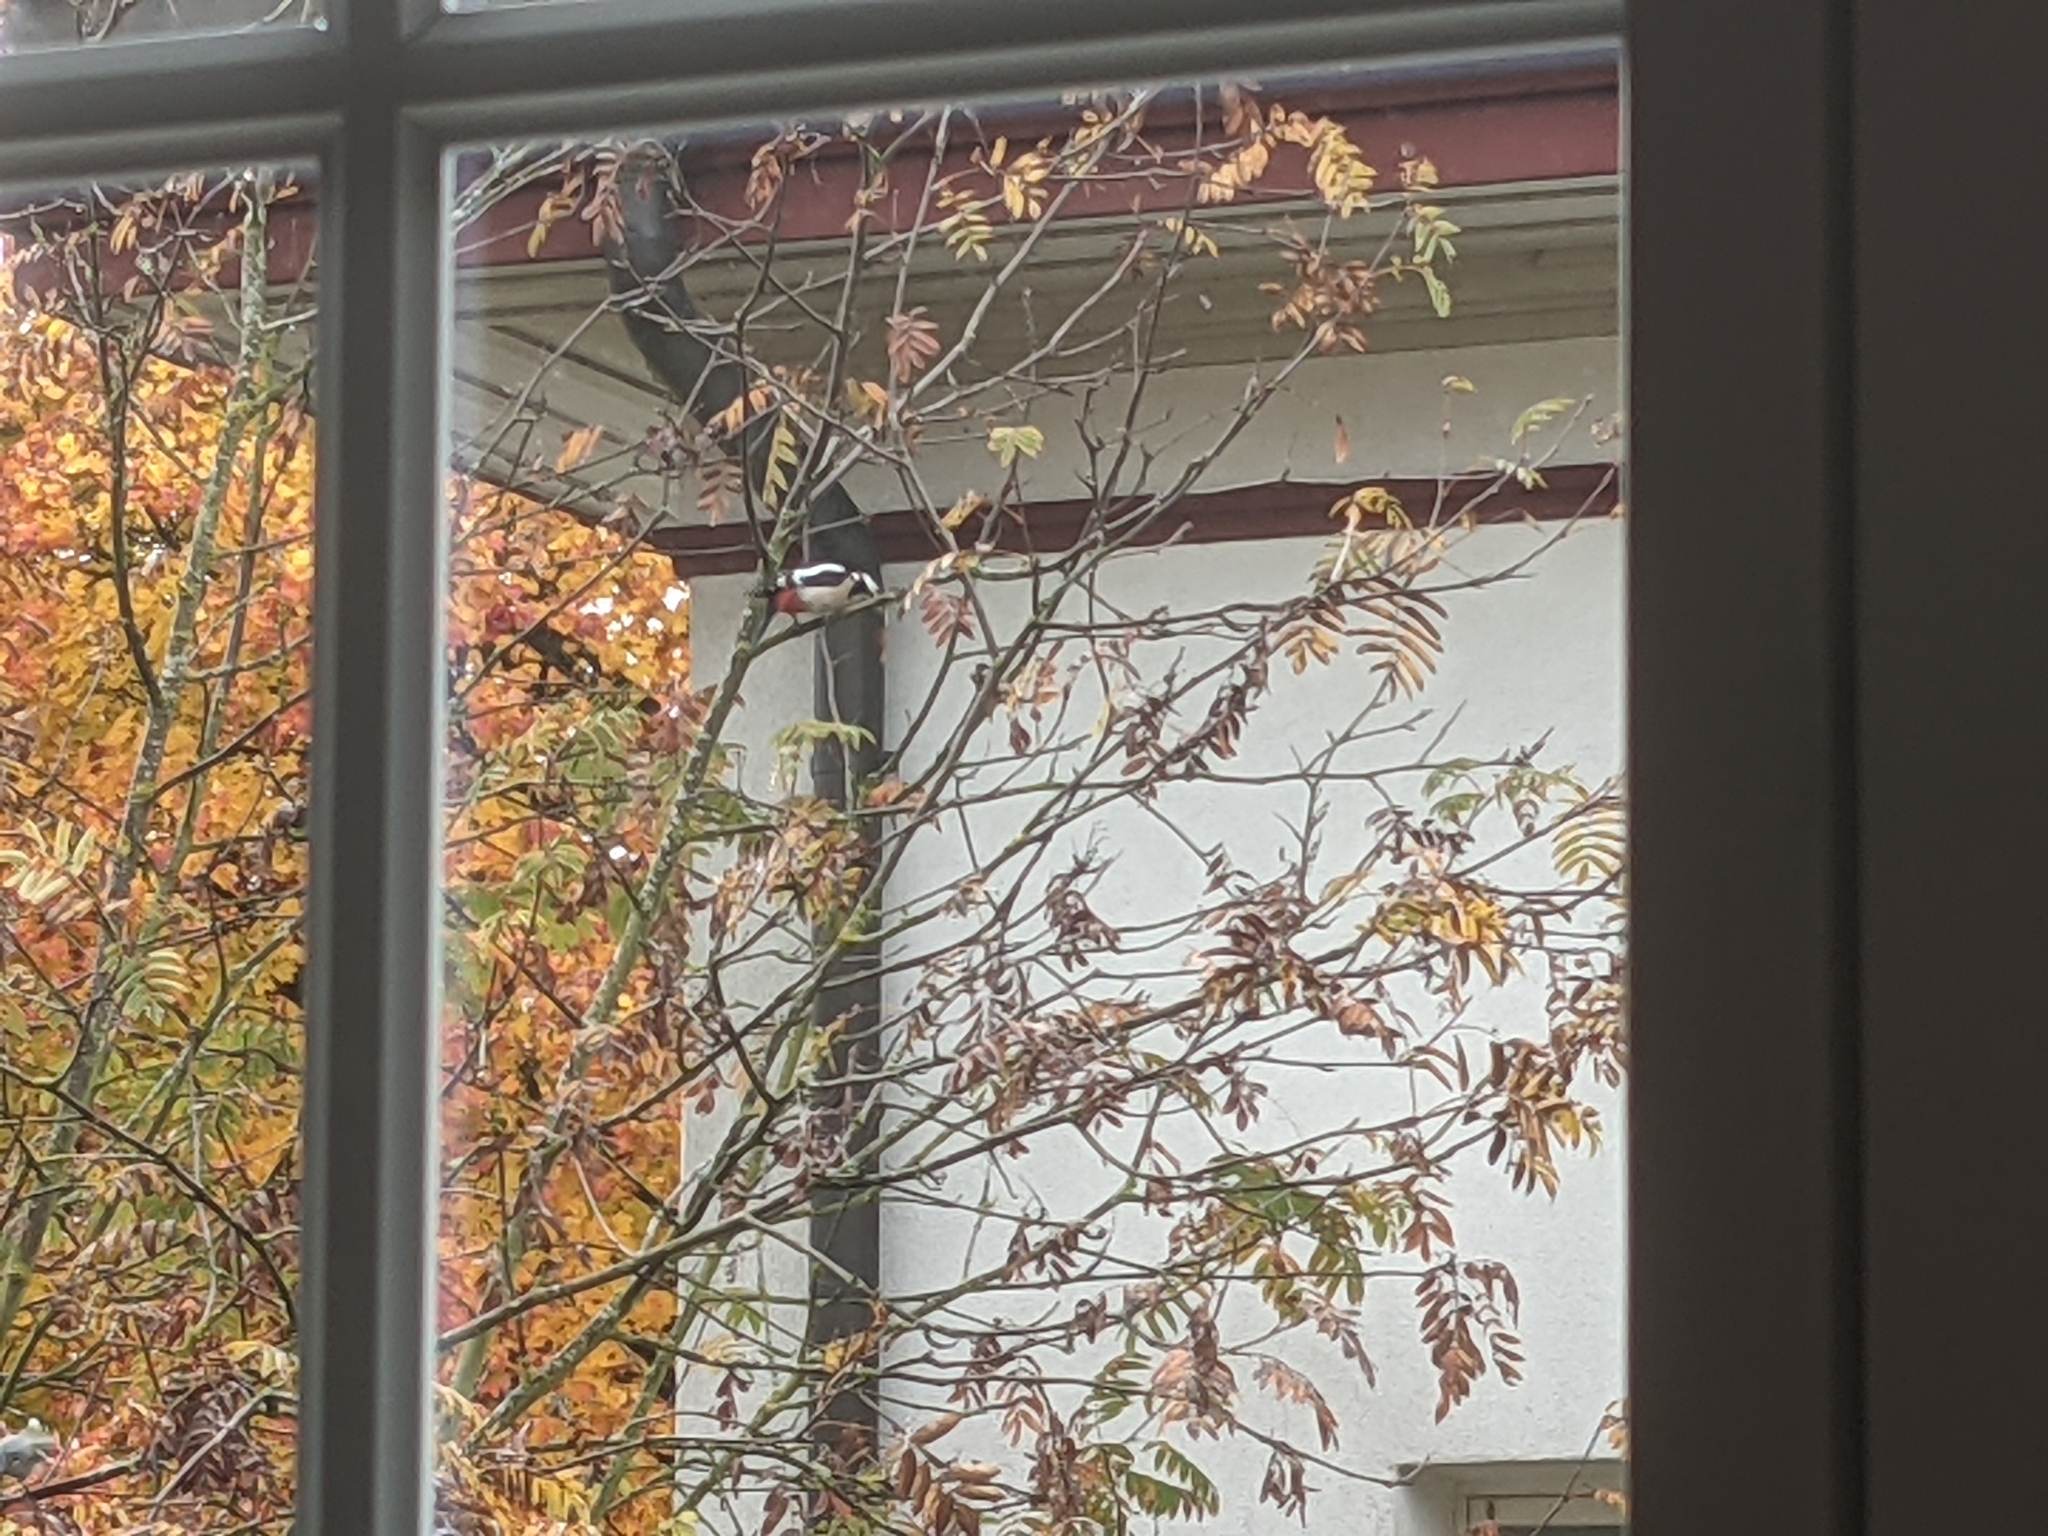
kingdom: Animalia
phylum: Chordata
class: Aves
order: Piciformes
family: Picidae
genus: Dendrocopos
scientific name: Dendrocopos major
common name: Great spotted woodpecker
